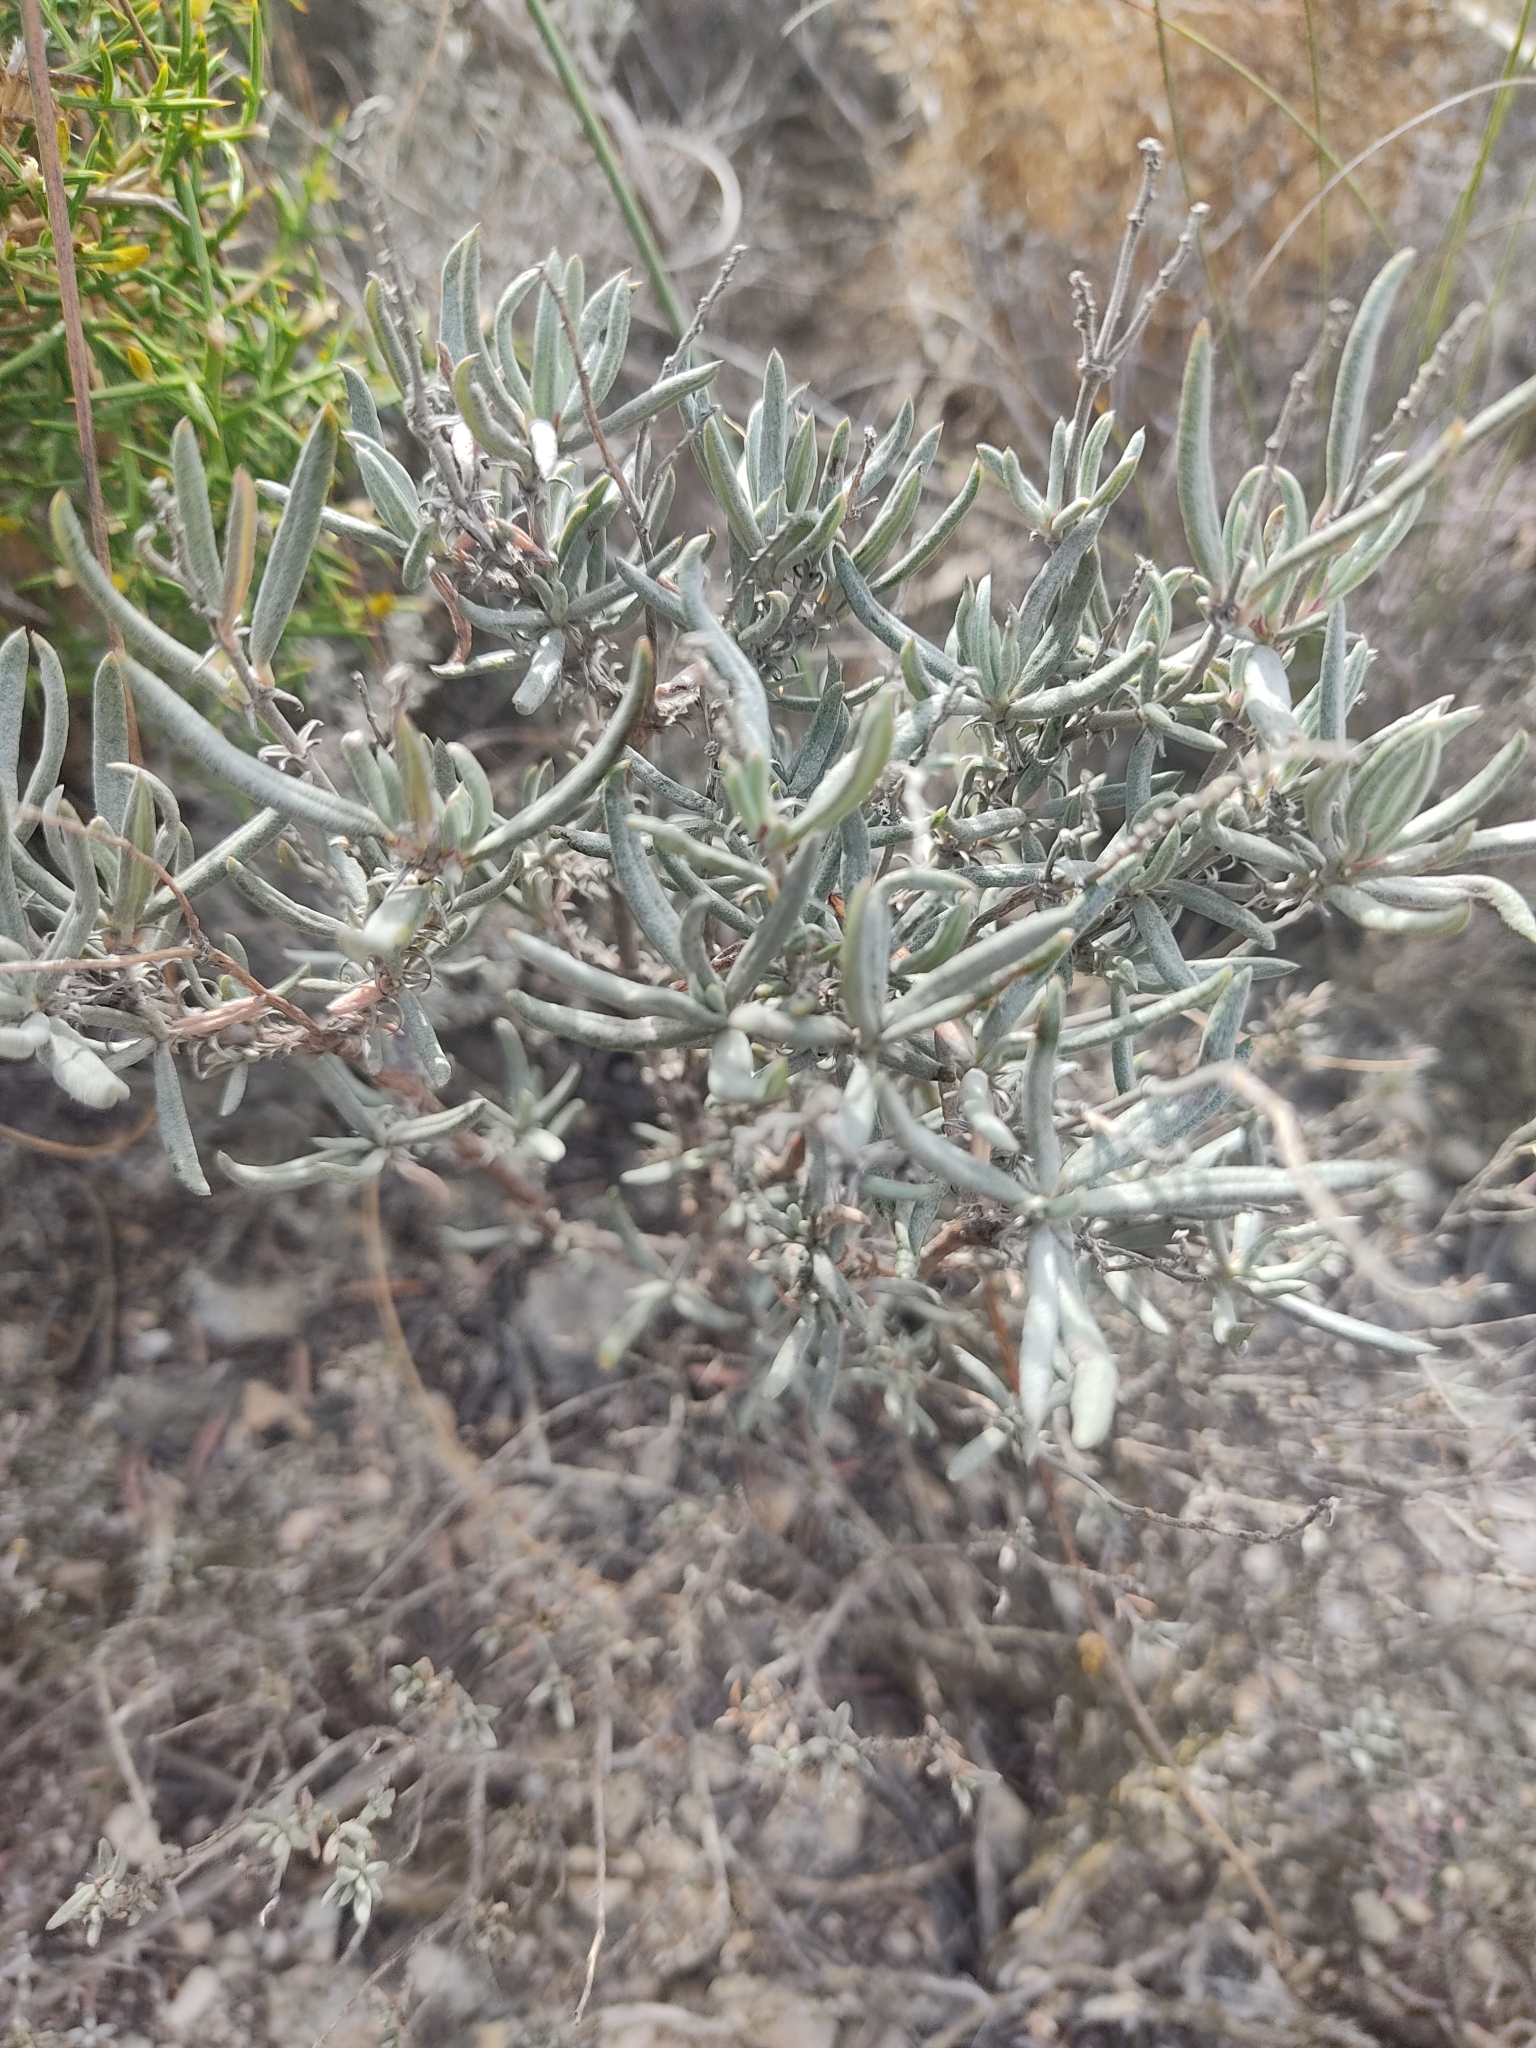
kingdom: Plantae
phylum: Tracheophyta
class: Magnoliopsida
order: Malvales
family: Cistaceae
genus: Helianthemum
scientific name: Helianthemum syriacum
